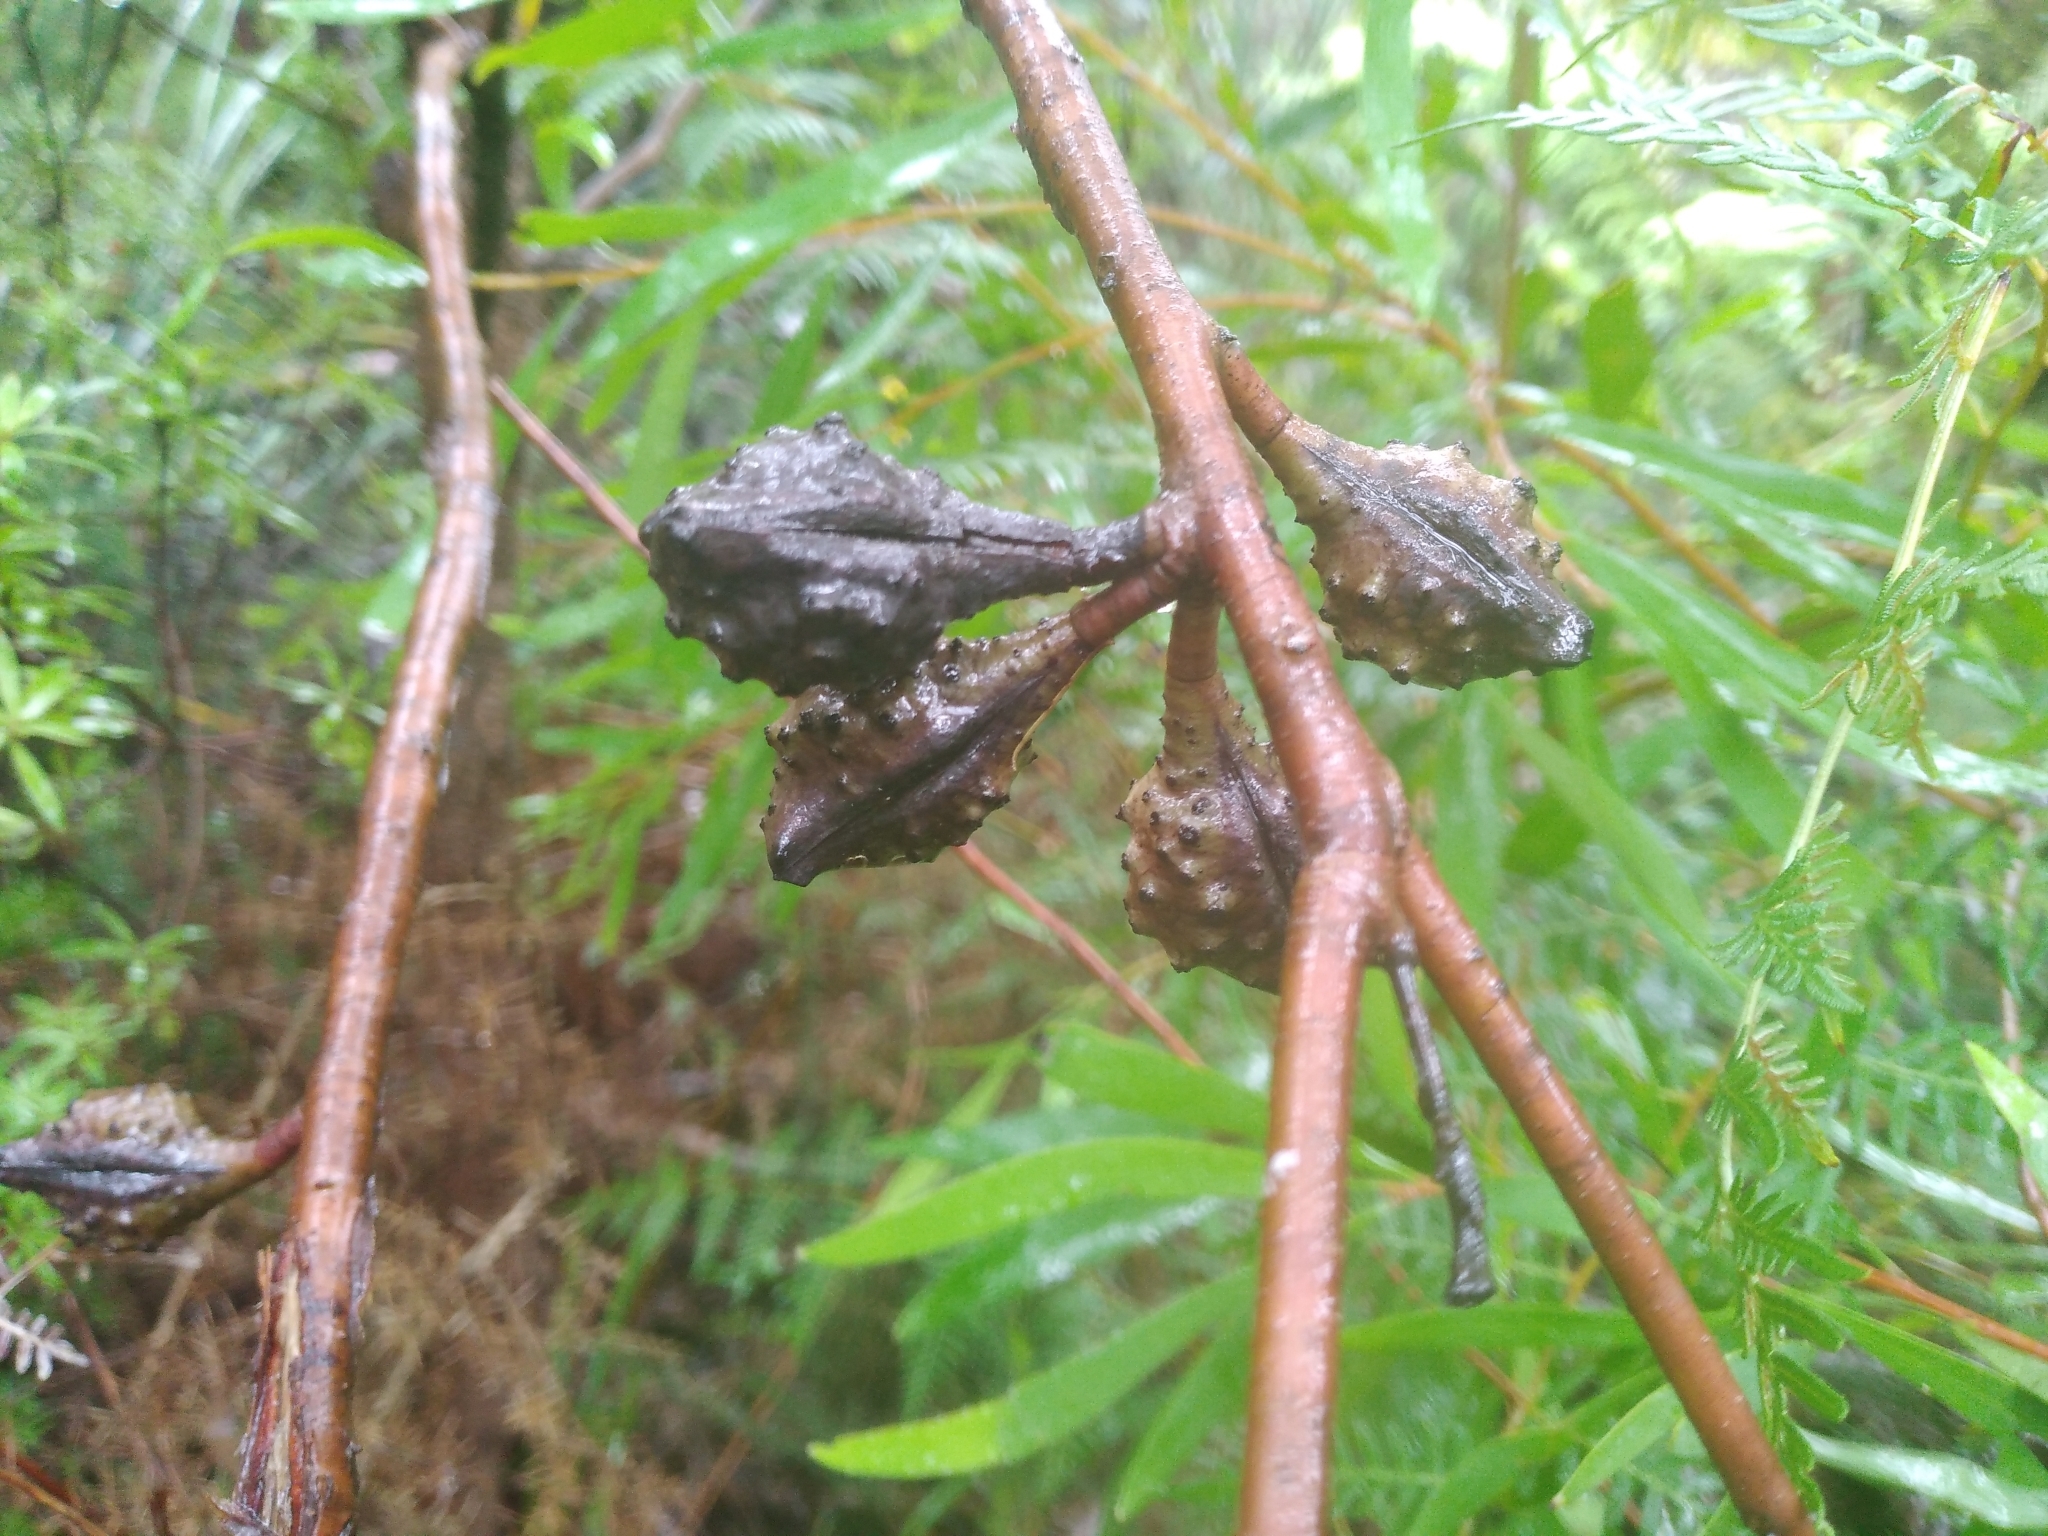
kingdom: Plantae
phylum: Tracheophyta
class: Magnoliopsida
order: Proteales
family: Proteaceae
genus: Hakea
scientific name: Hakea salicifolia
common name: Willow hakea
